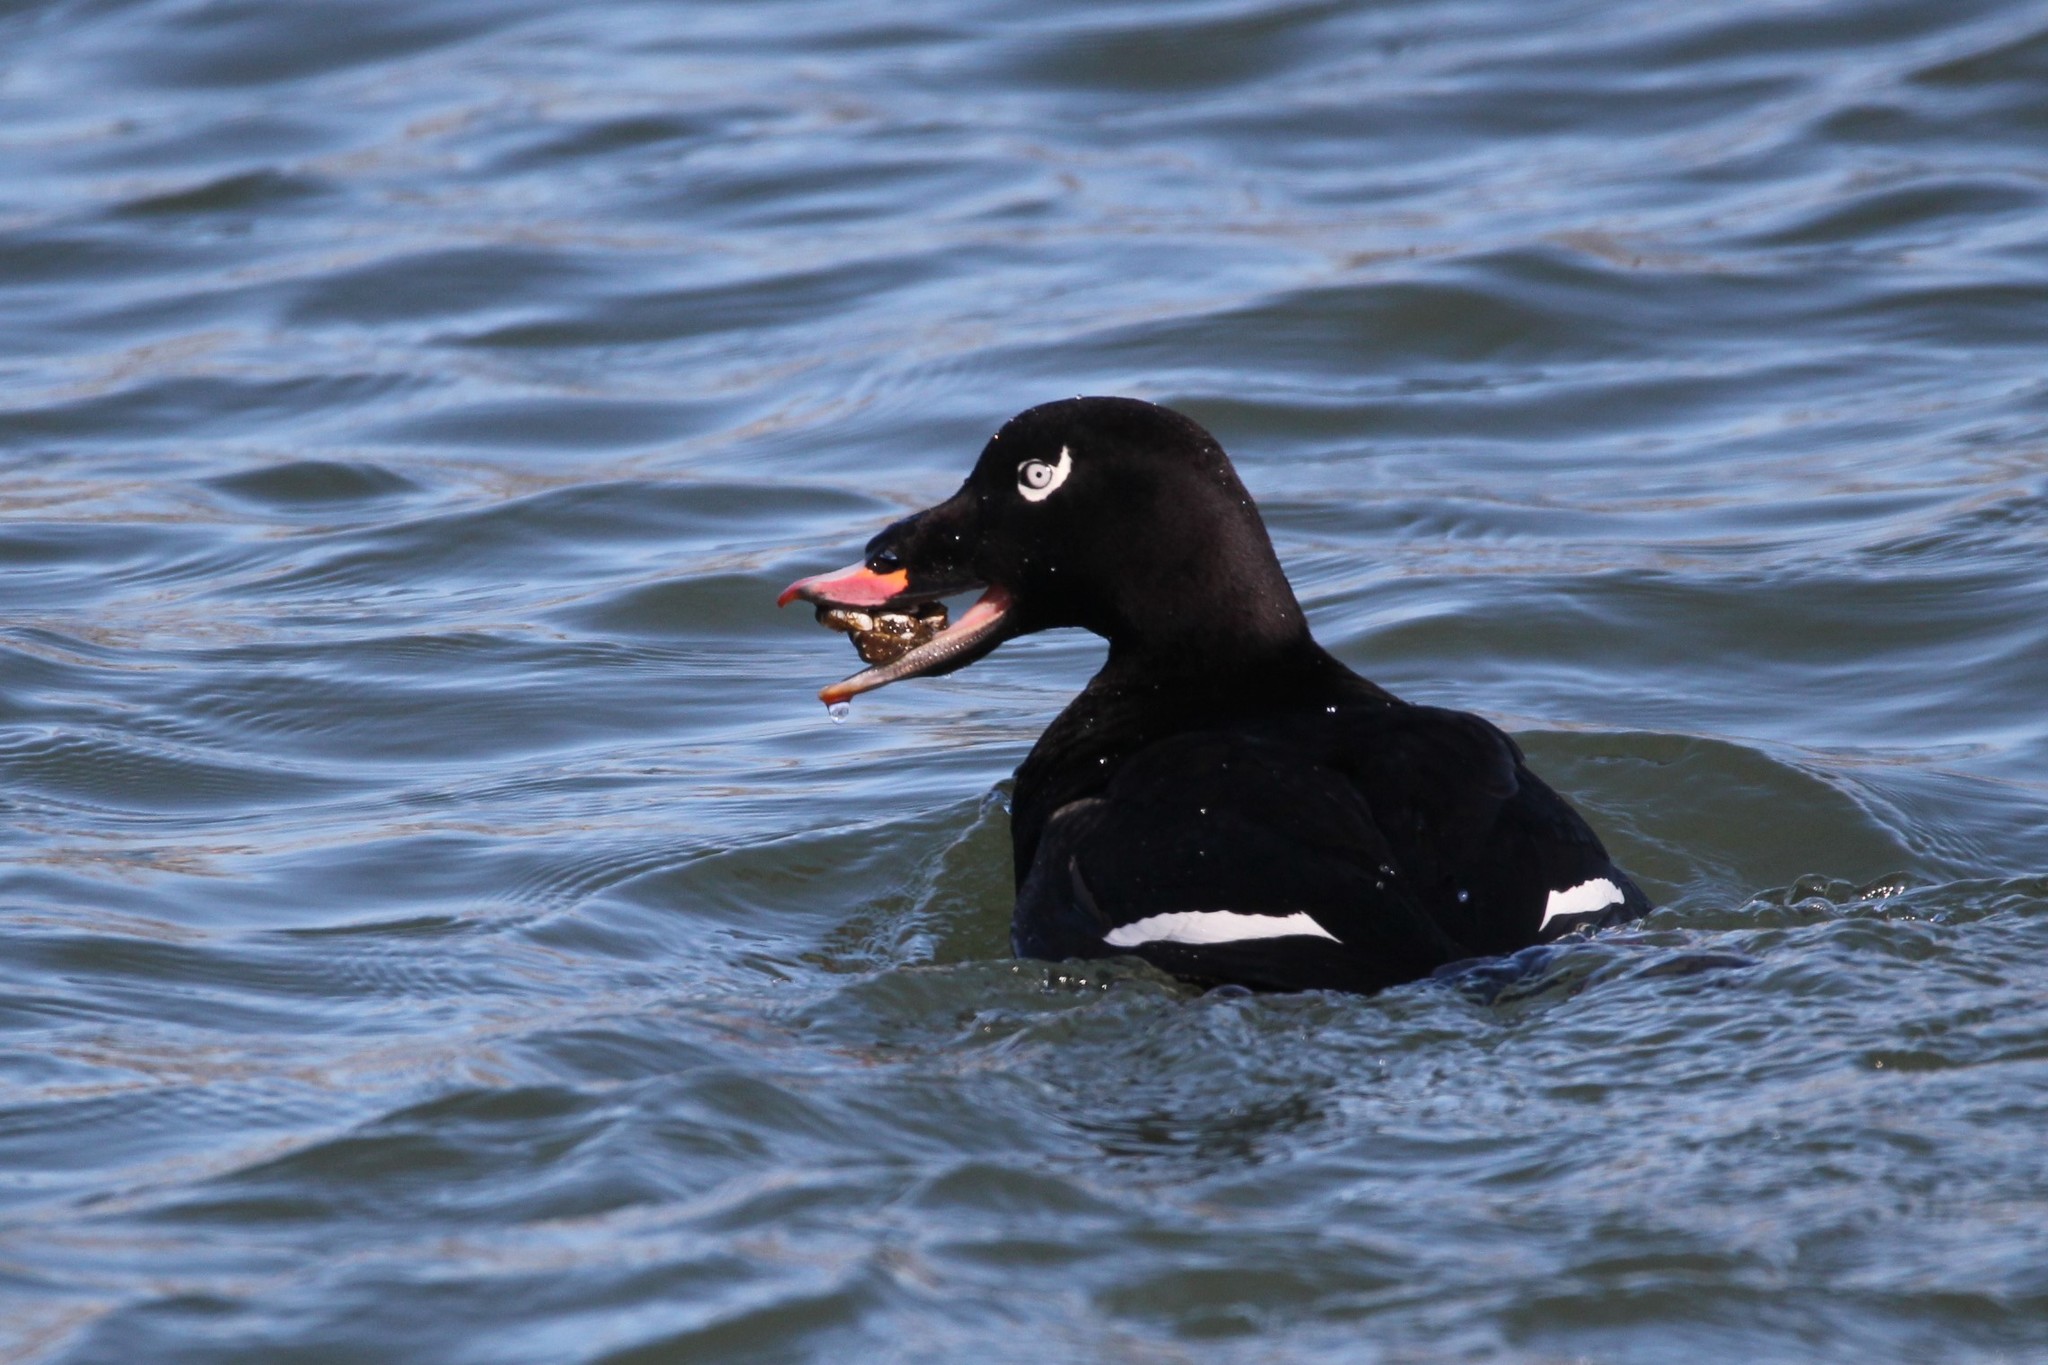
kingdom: Animalia
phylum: Chordata
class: Aves
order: Anseriformes
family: Anatidae
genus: Melanitta
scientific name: Melanitta deglandi
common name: White-winged scoter
